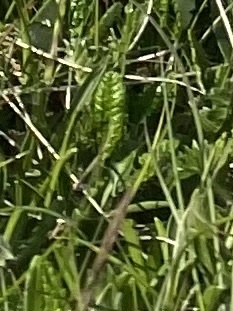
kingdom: Plantae
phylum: Tracheophyta
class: Magnoliopsida
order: Rosales
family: Rosaceae
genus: Dryas
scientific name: Dryas octopetala
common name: Eight-petal mountain-avens
